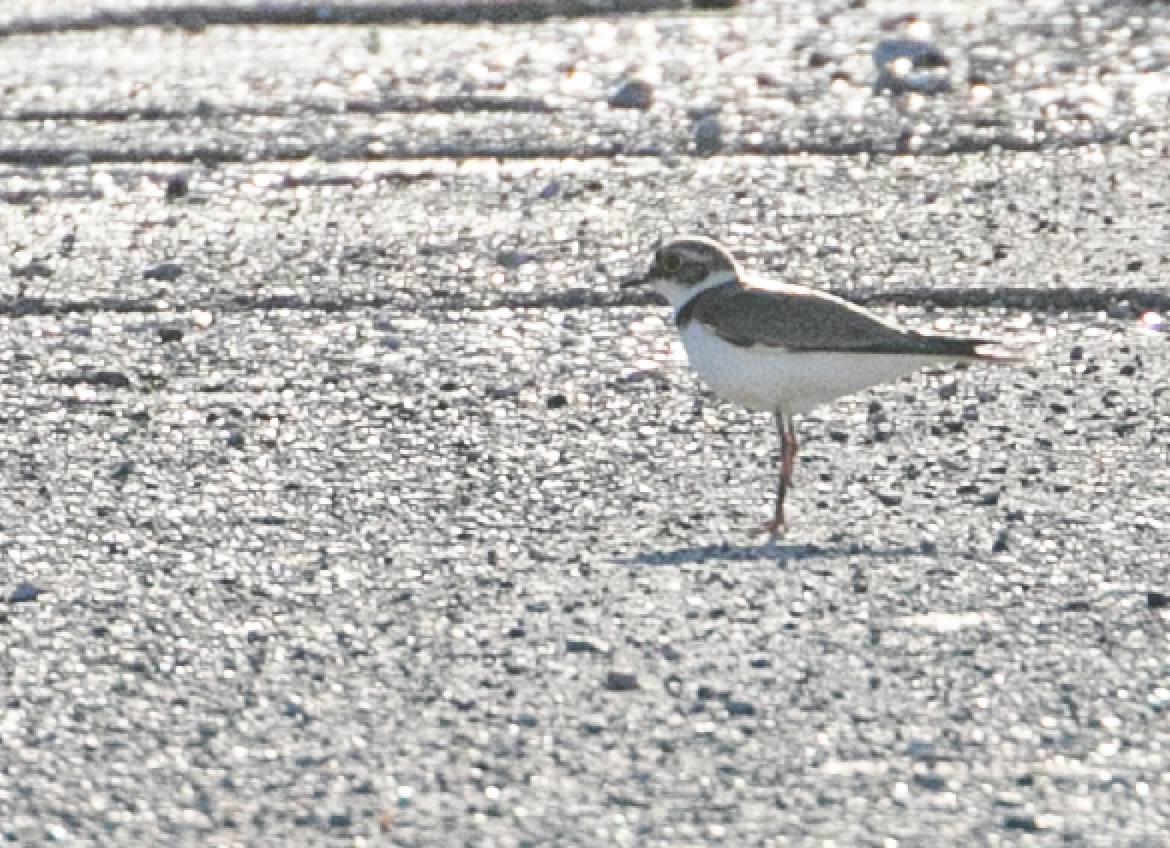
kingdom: Animalia
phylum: Chordata
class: Aves
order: Charadriiformes
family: Charadriidae
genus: Charadrius
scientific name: Charadrius dubius
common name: Little ringed plover
